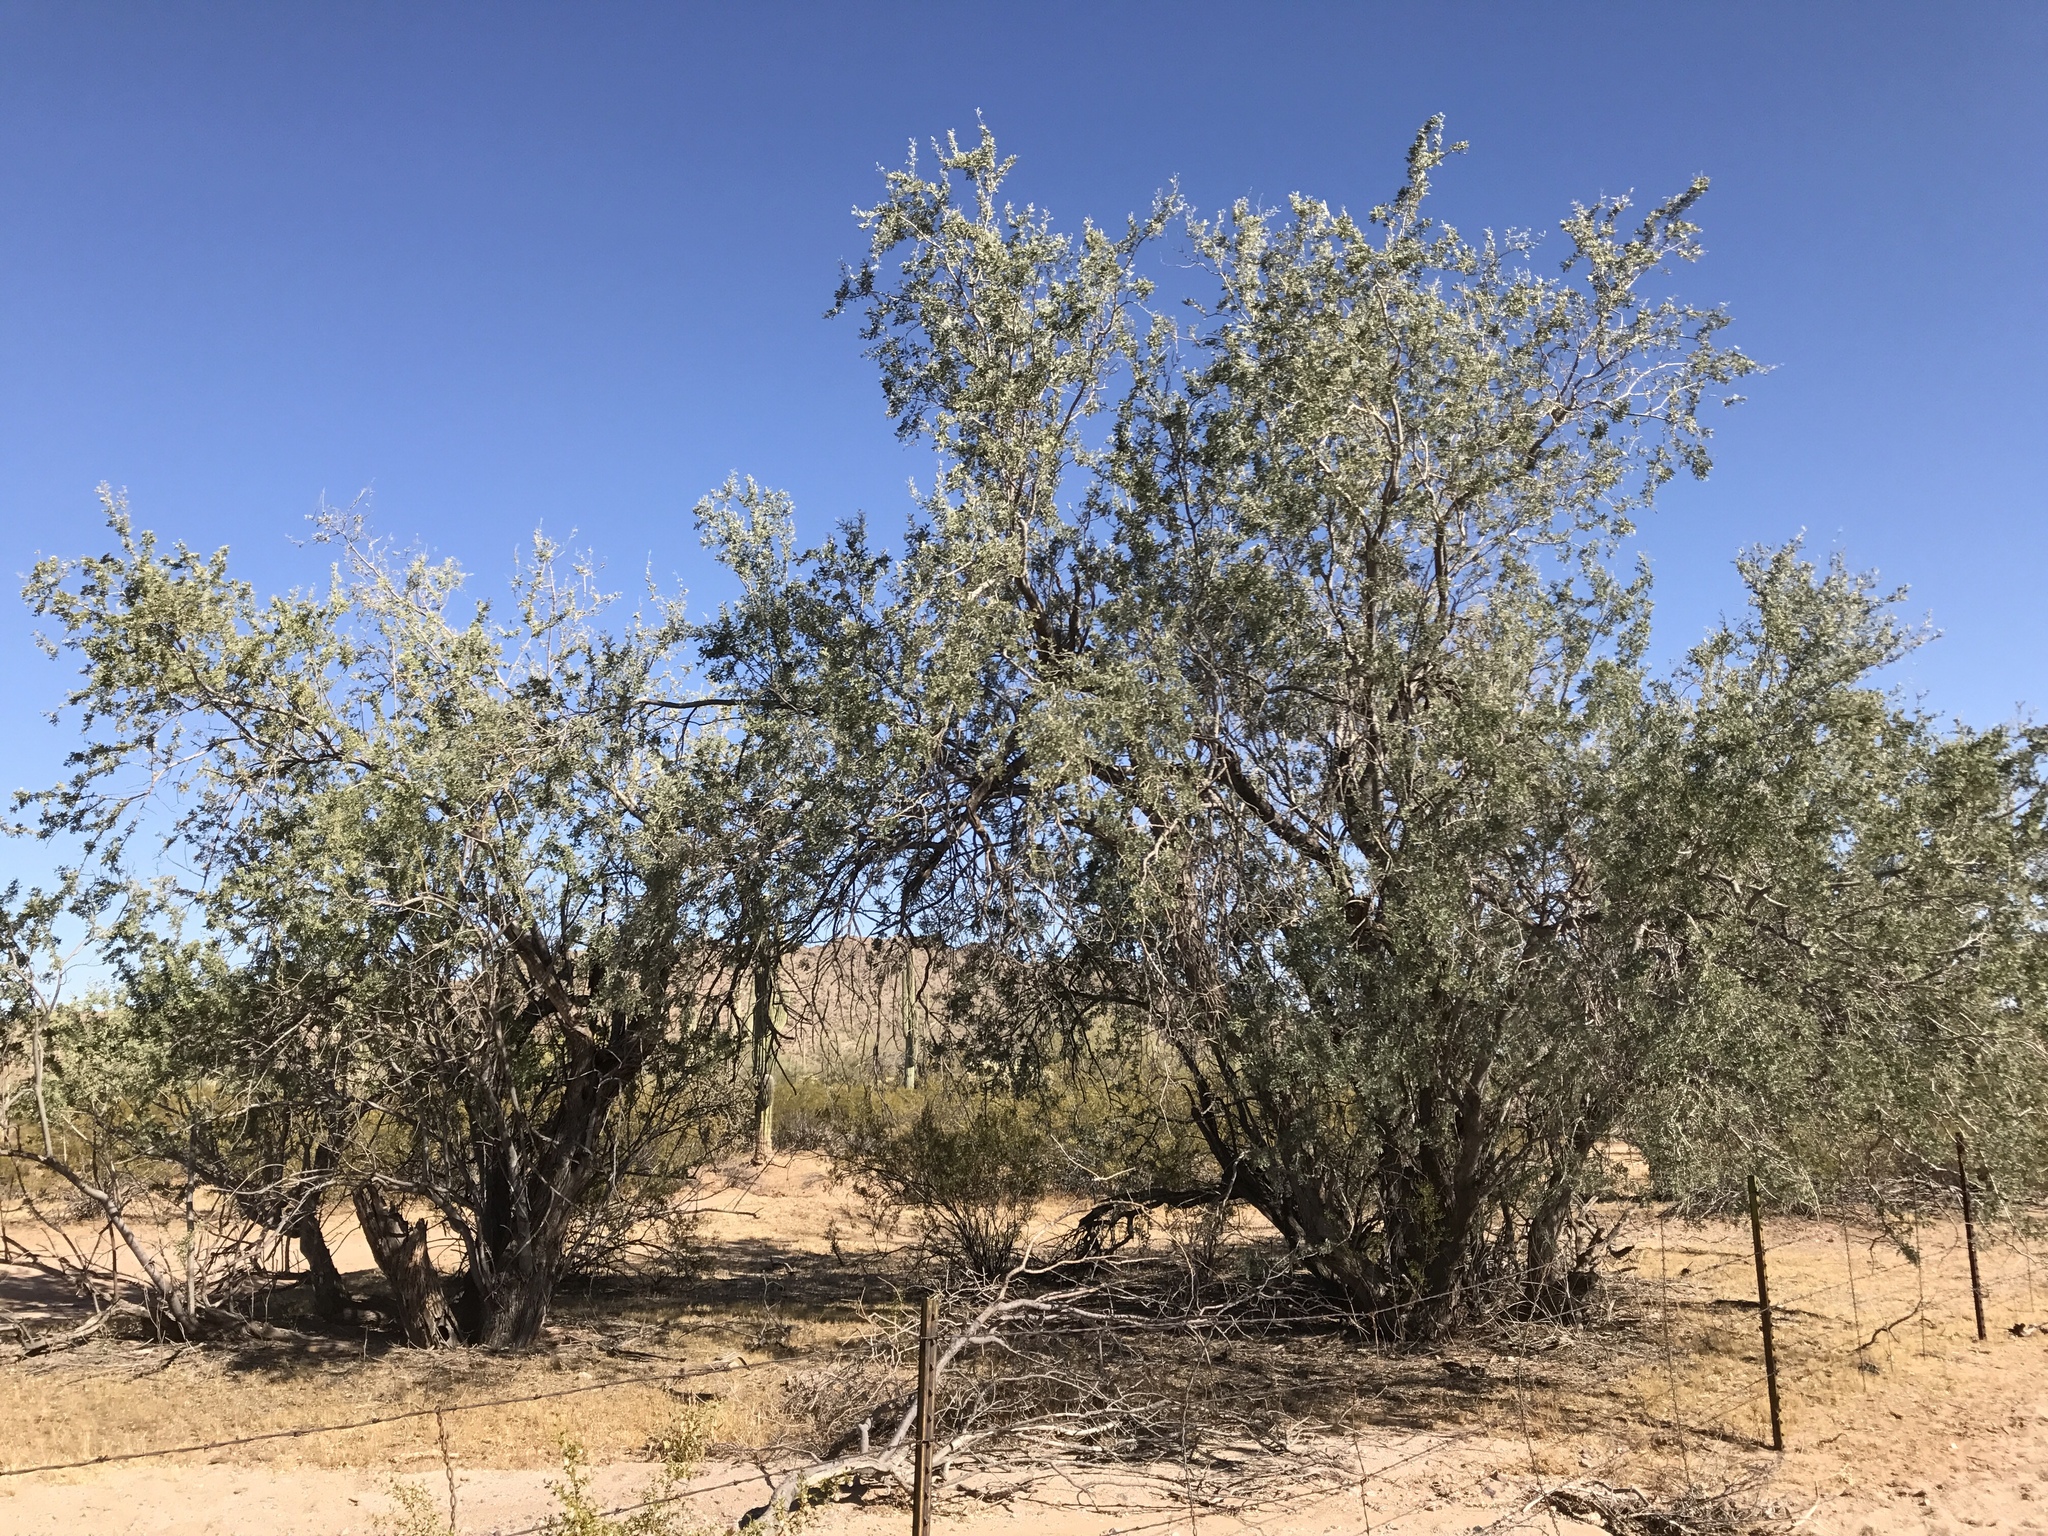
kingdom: Plantae
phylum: Tracheophyta
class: Magnoliopsida
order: Fabales
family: Fabaceae
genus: Olneya
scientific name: Olneya tesota
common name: Desert ironwood
